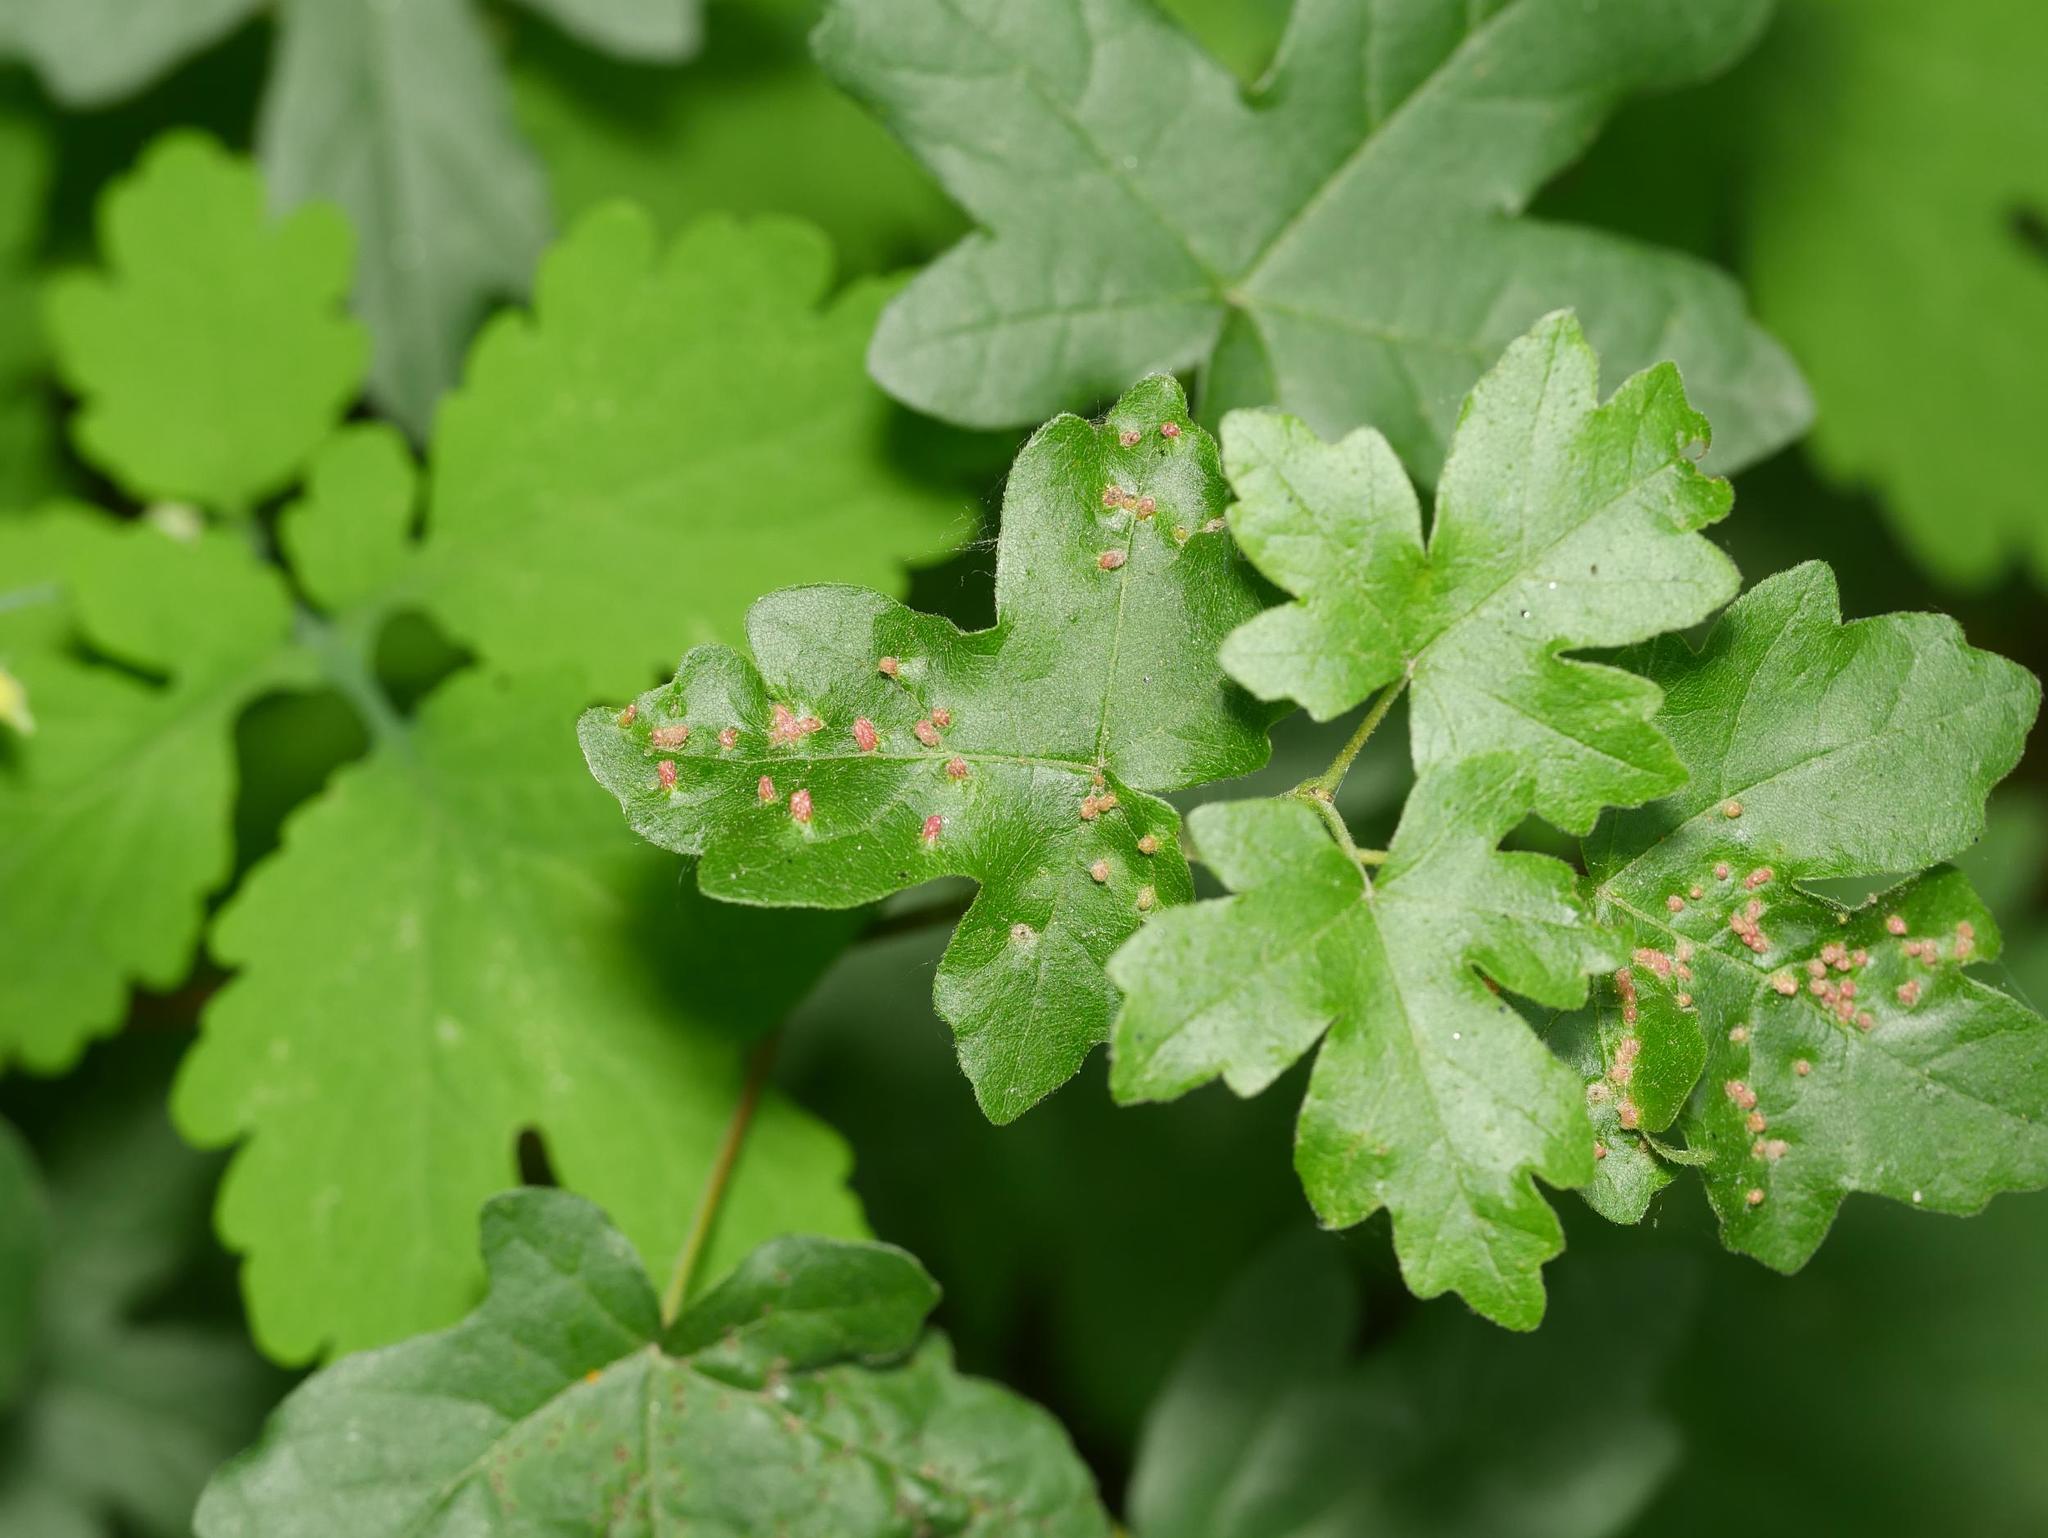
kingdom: Plantae
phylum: Tracheophyta
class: Magnoliopsida
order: Sapindales
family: Sapindaceae
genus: Acer
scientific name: Acer campestre
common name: Field maple
